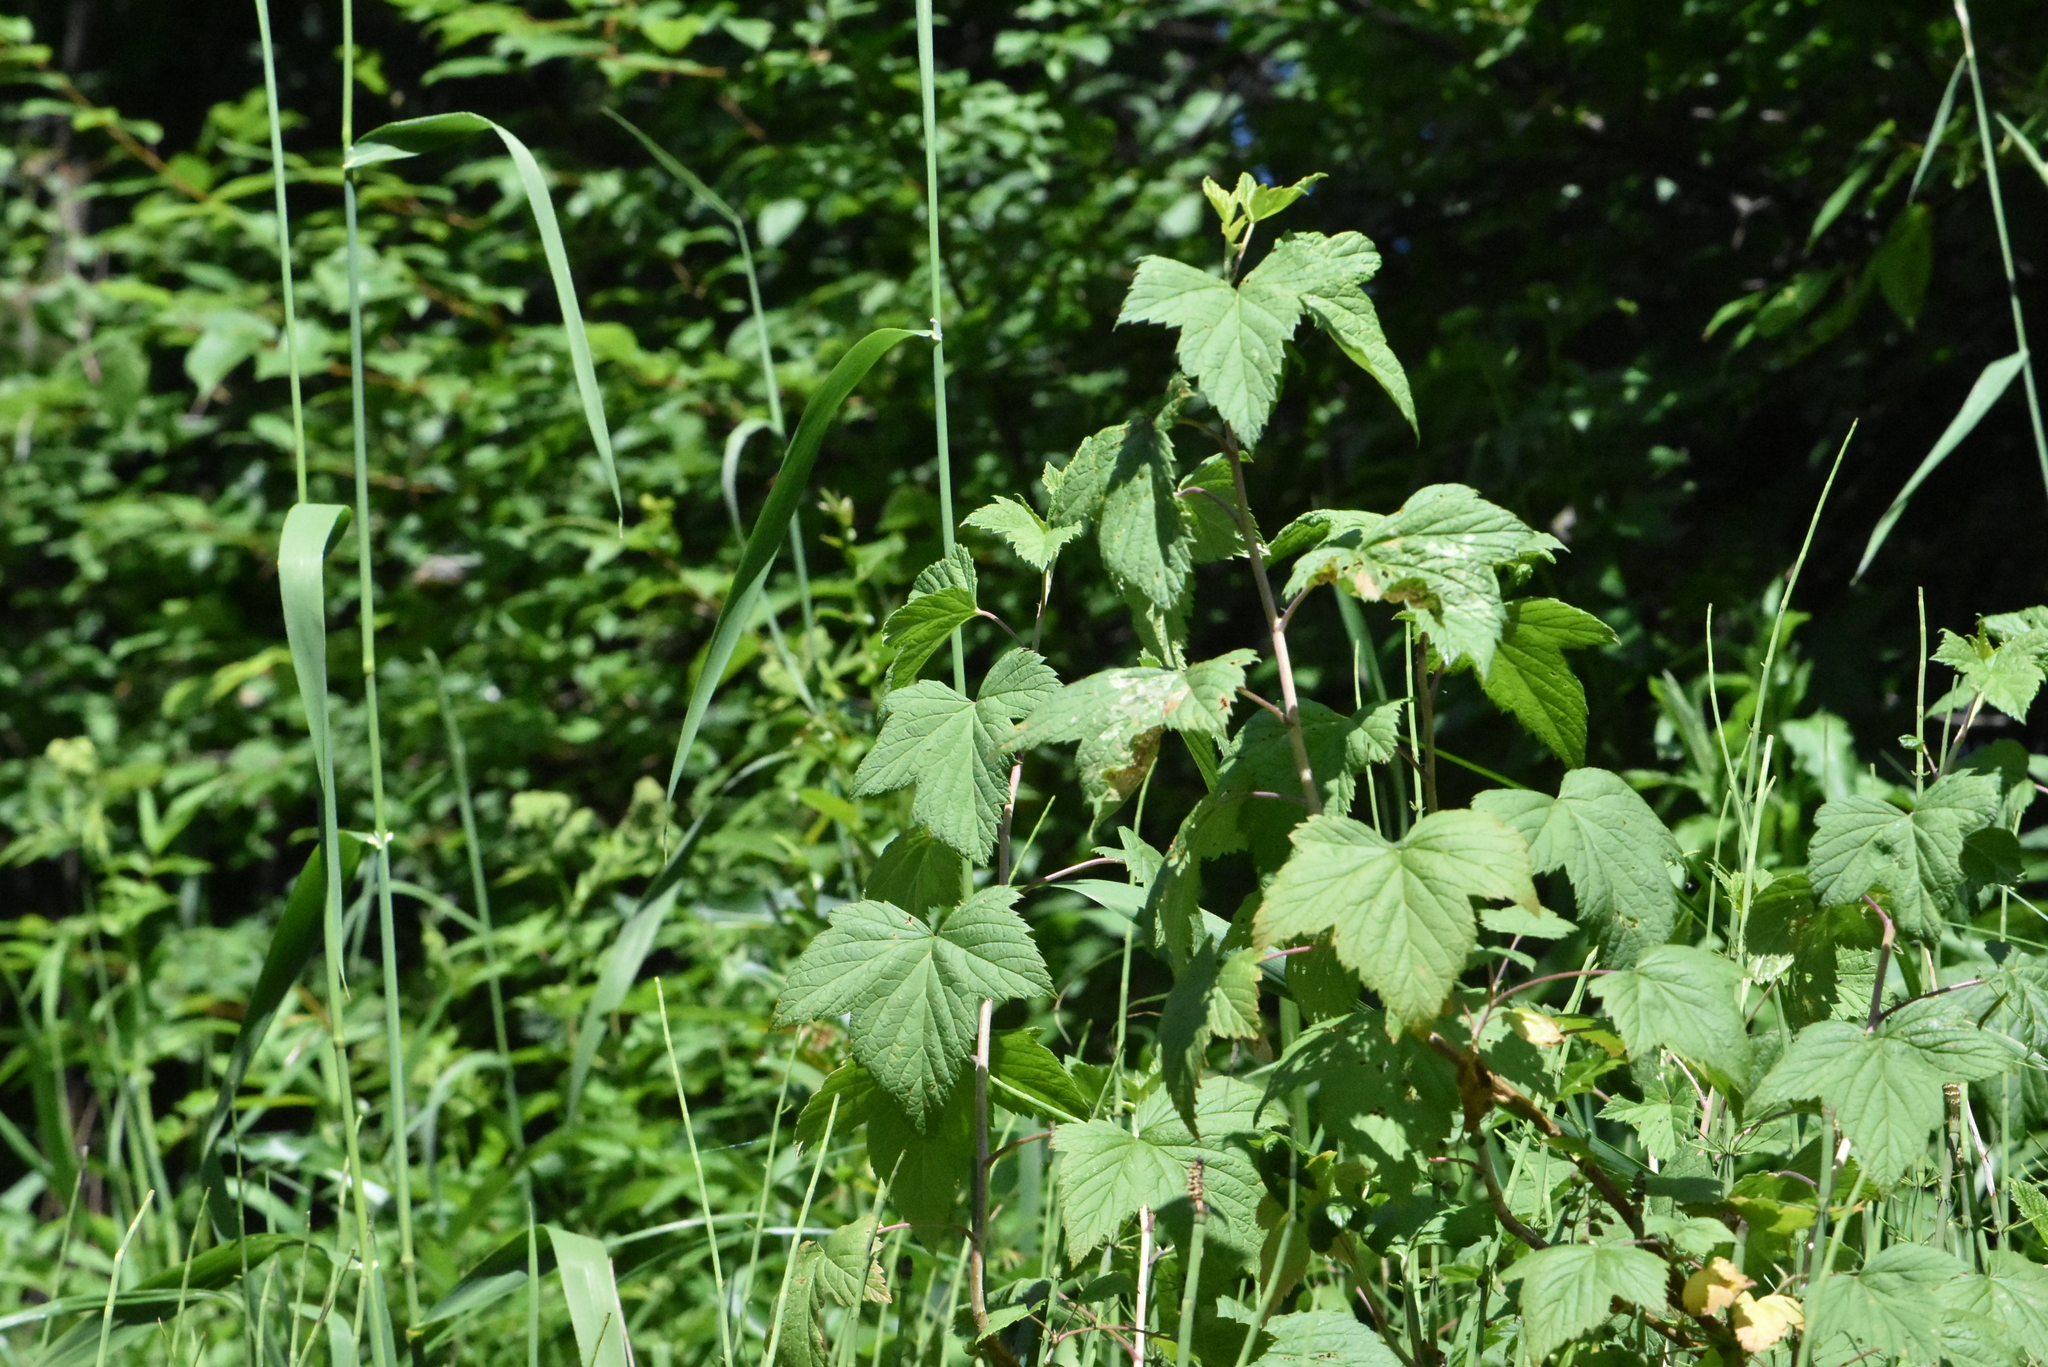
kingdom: Plantae
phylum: Tracheophyta
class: Magnoliopsida
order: Saxifragales
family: Grossulariaceae
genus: Ribes
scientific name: Ribes nigrum
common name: Black currant
